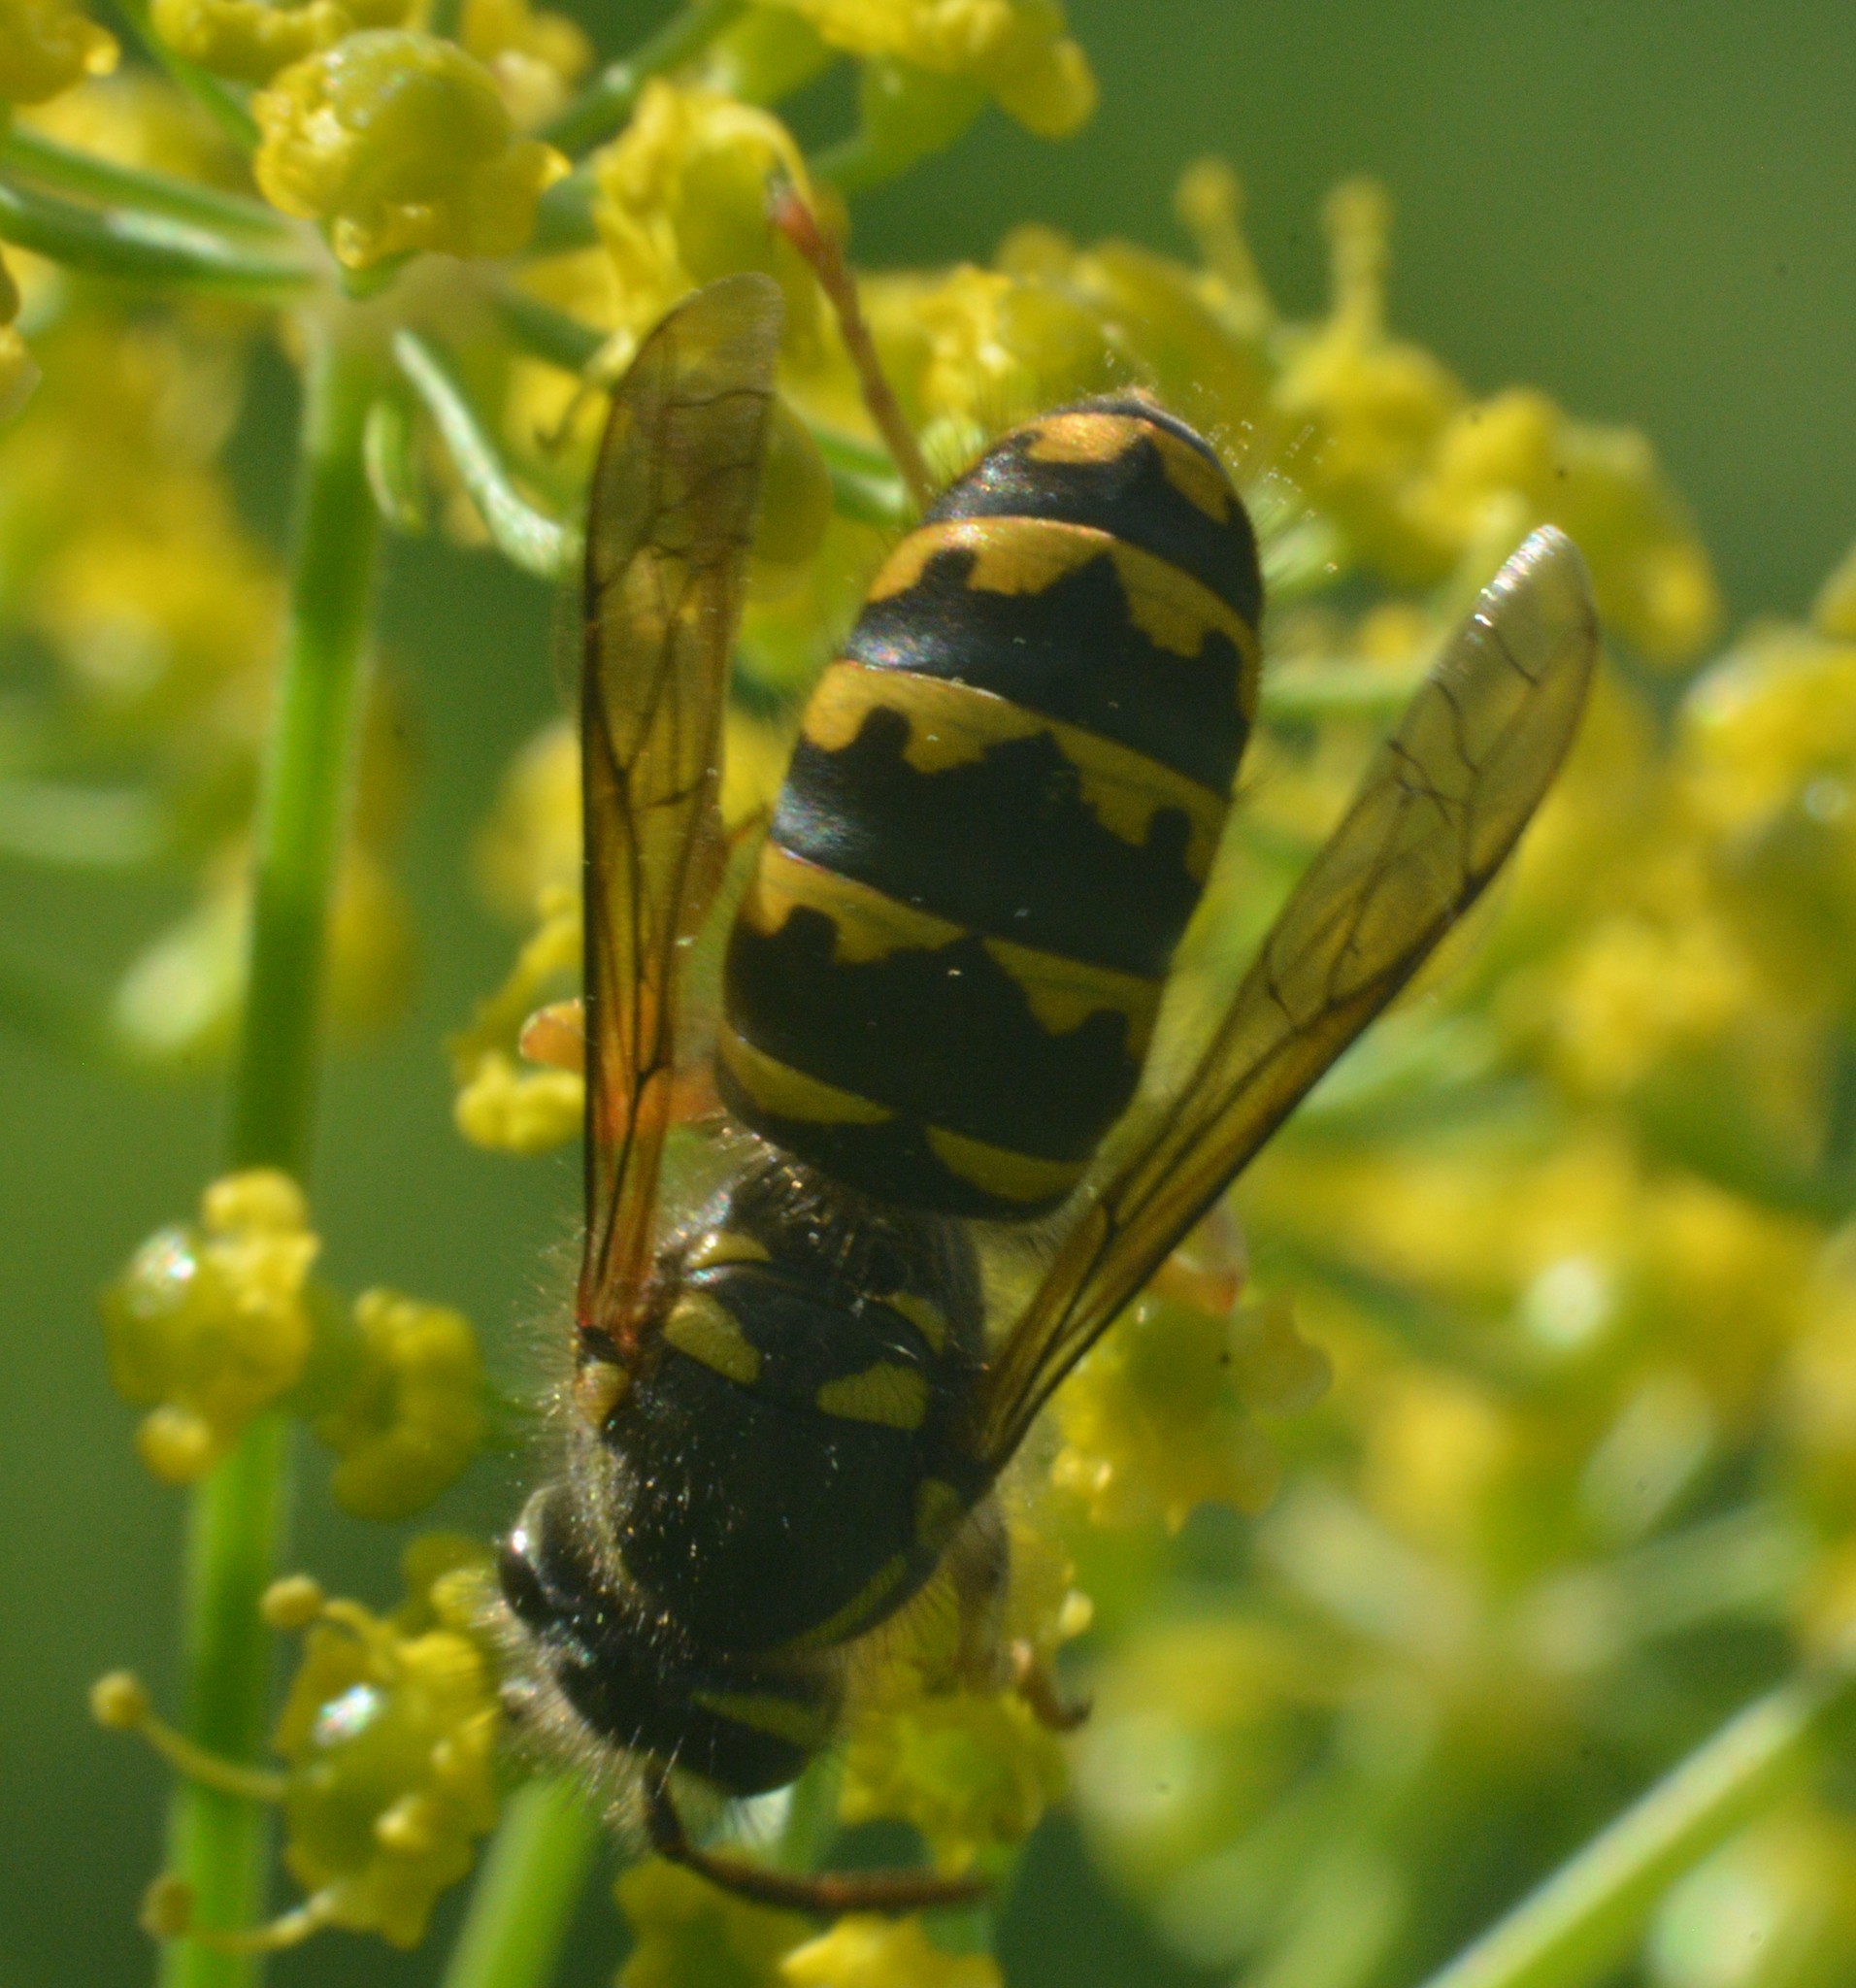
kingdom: Animalia
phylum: Arthropoda
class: Insecta
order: Hymenoptera
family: Vespidae
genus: Dolichovespula
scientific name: Dolichovespula arenaria
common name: Aerial yellowjacket
